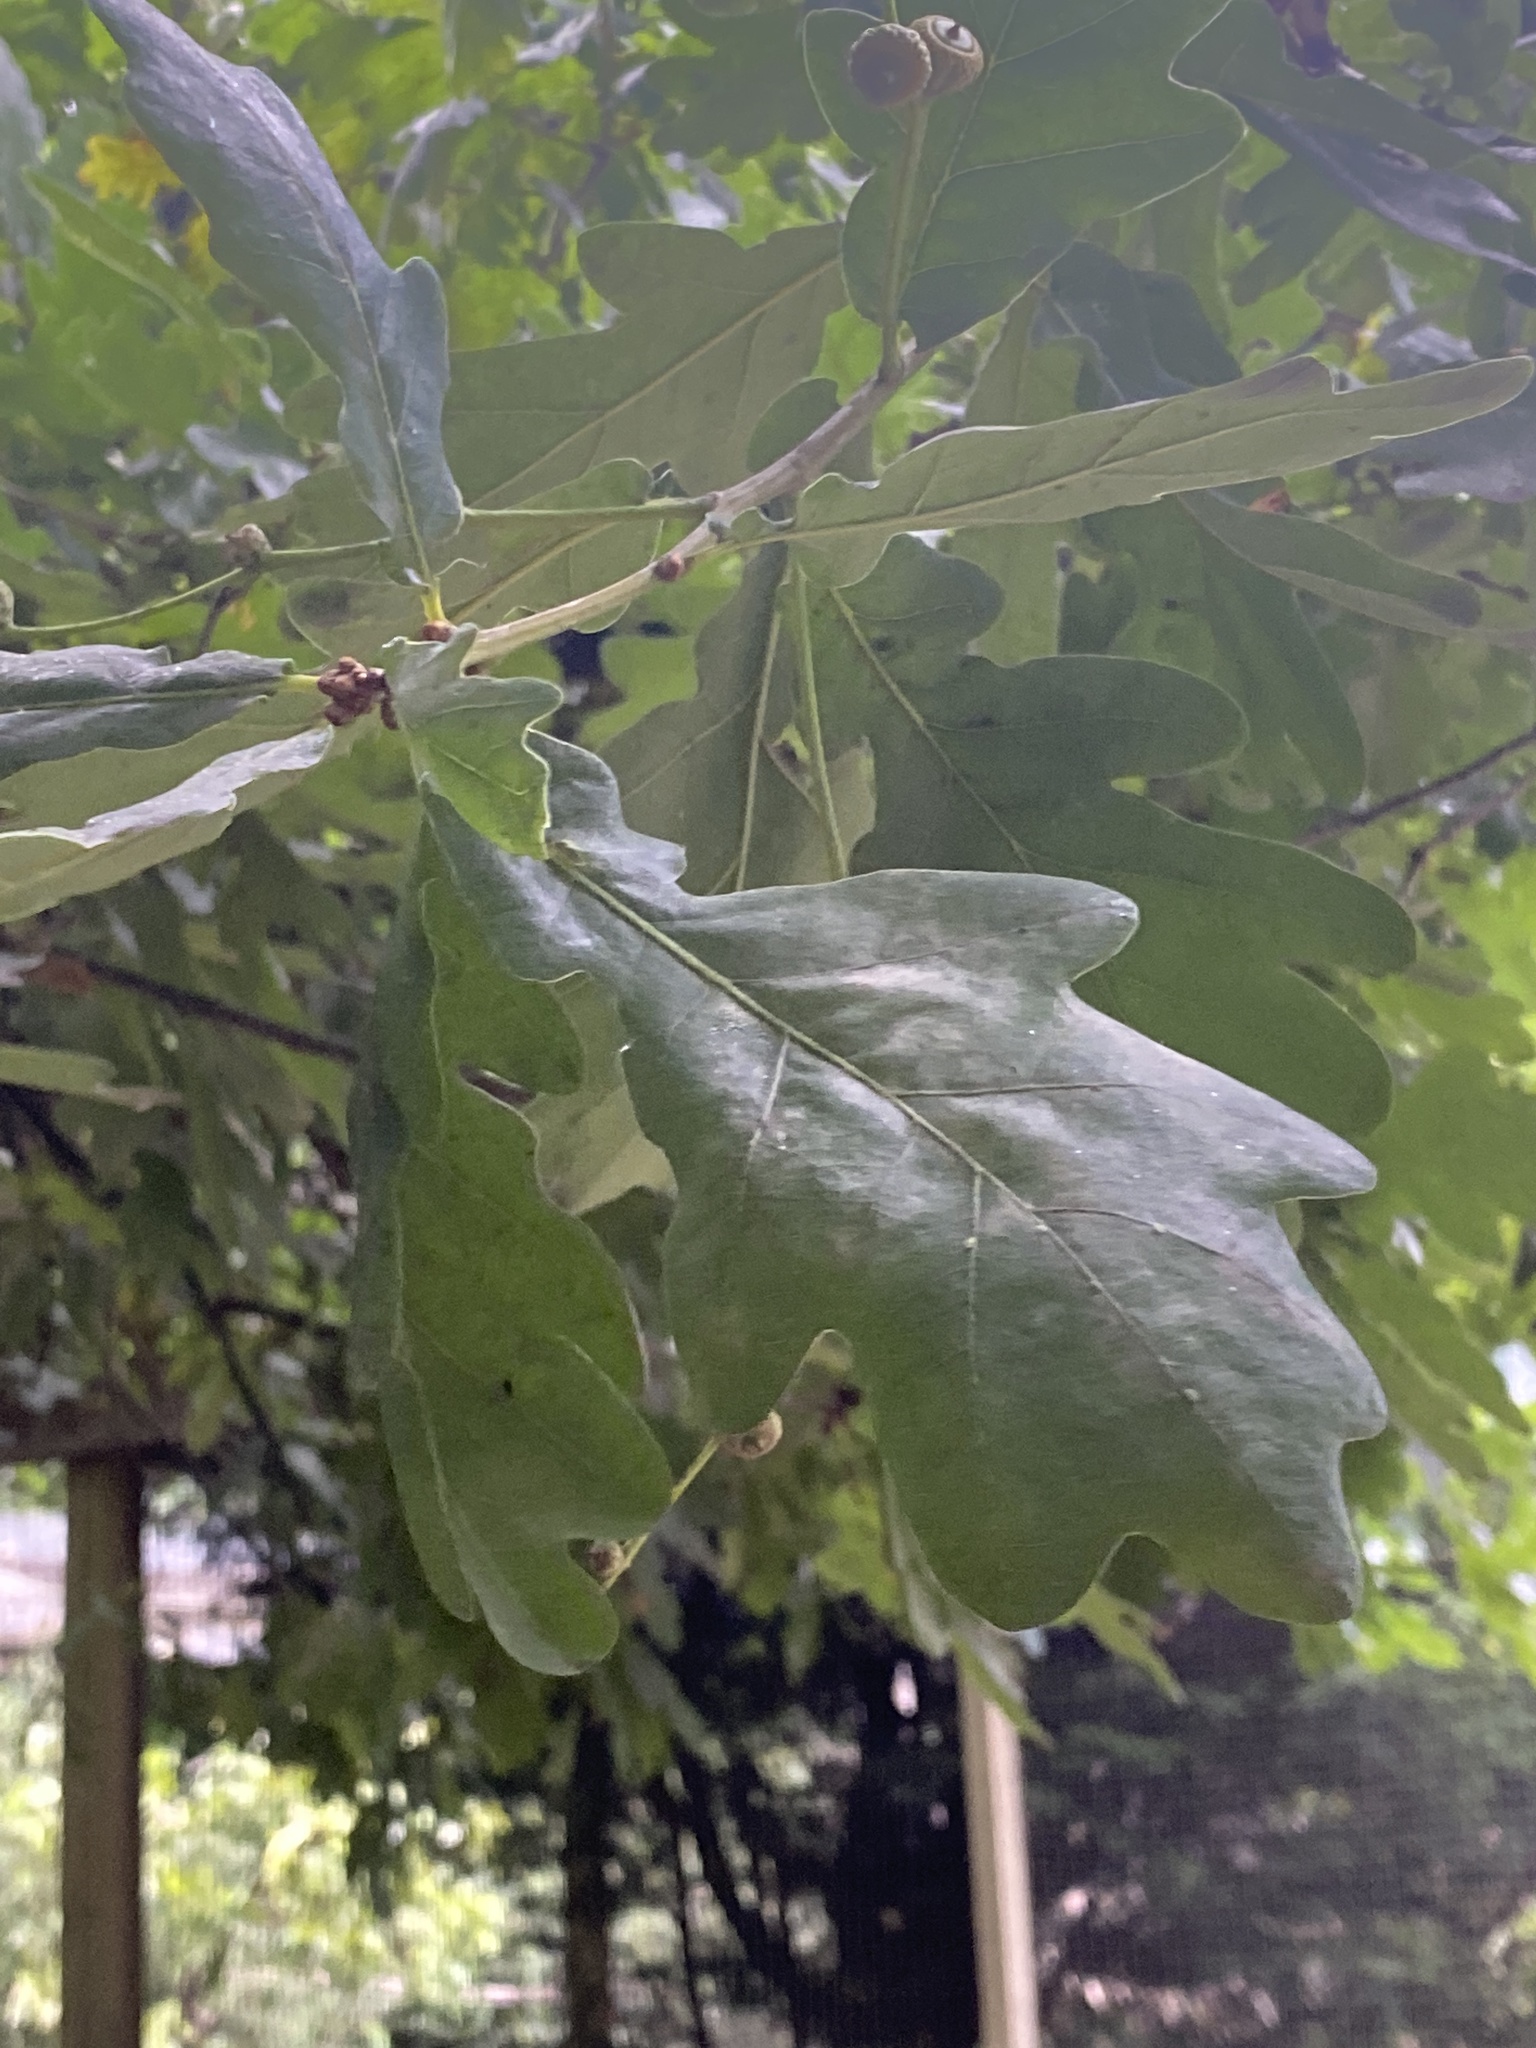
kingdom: Plantae
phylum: Tracheophyta
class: Magnoliopsida
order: Fagales
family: Fagaceae
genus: Quercus
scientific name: Quercus robur
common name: Pedunculate oak
